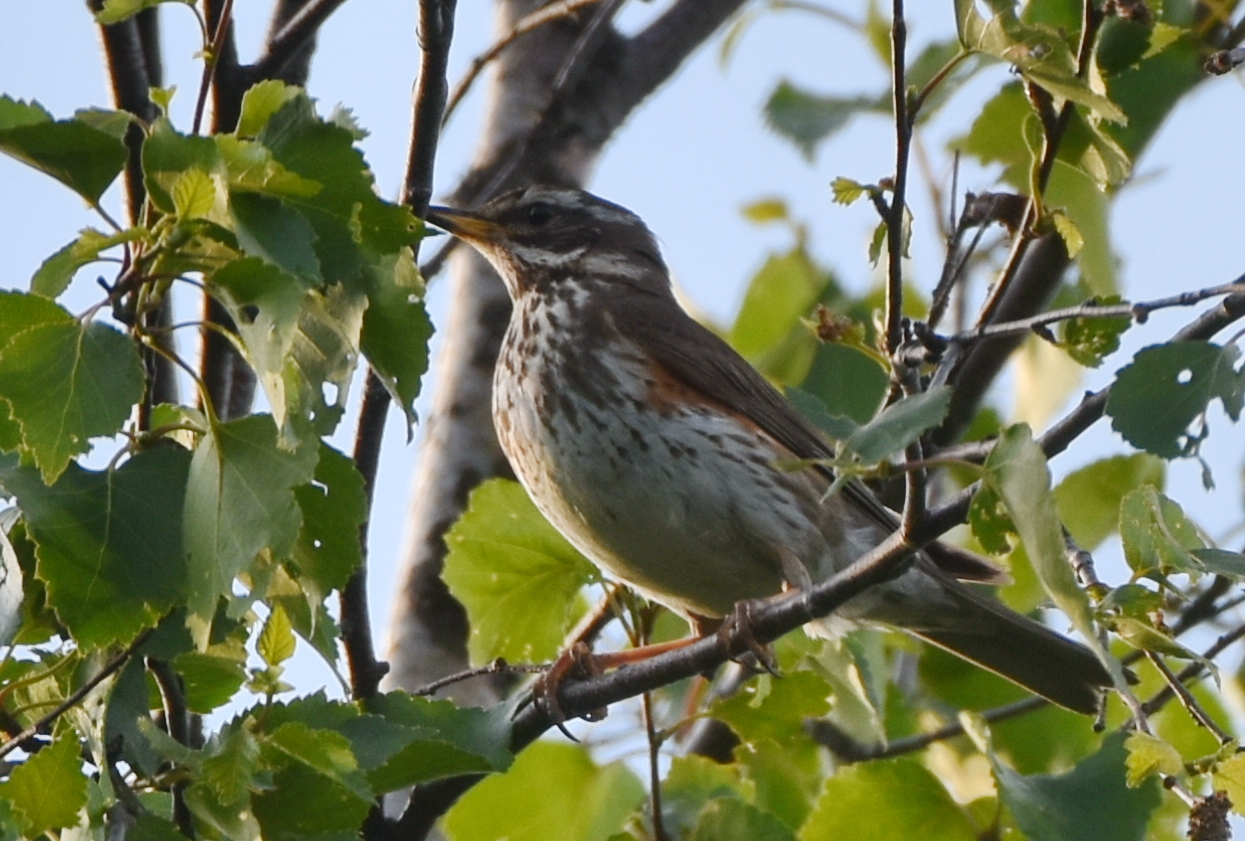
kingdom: Animalia
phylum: Chordata
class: Aves
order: Passeriformes
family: Turdidae
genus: Turdus
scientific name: Turdus iliacus
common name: Redwing
